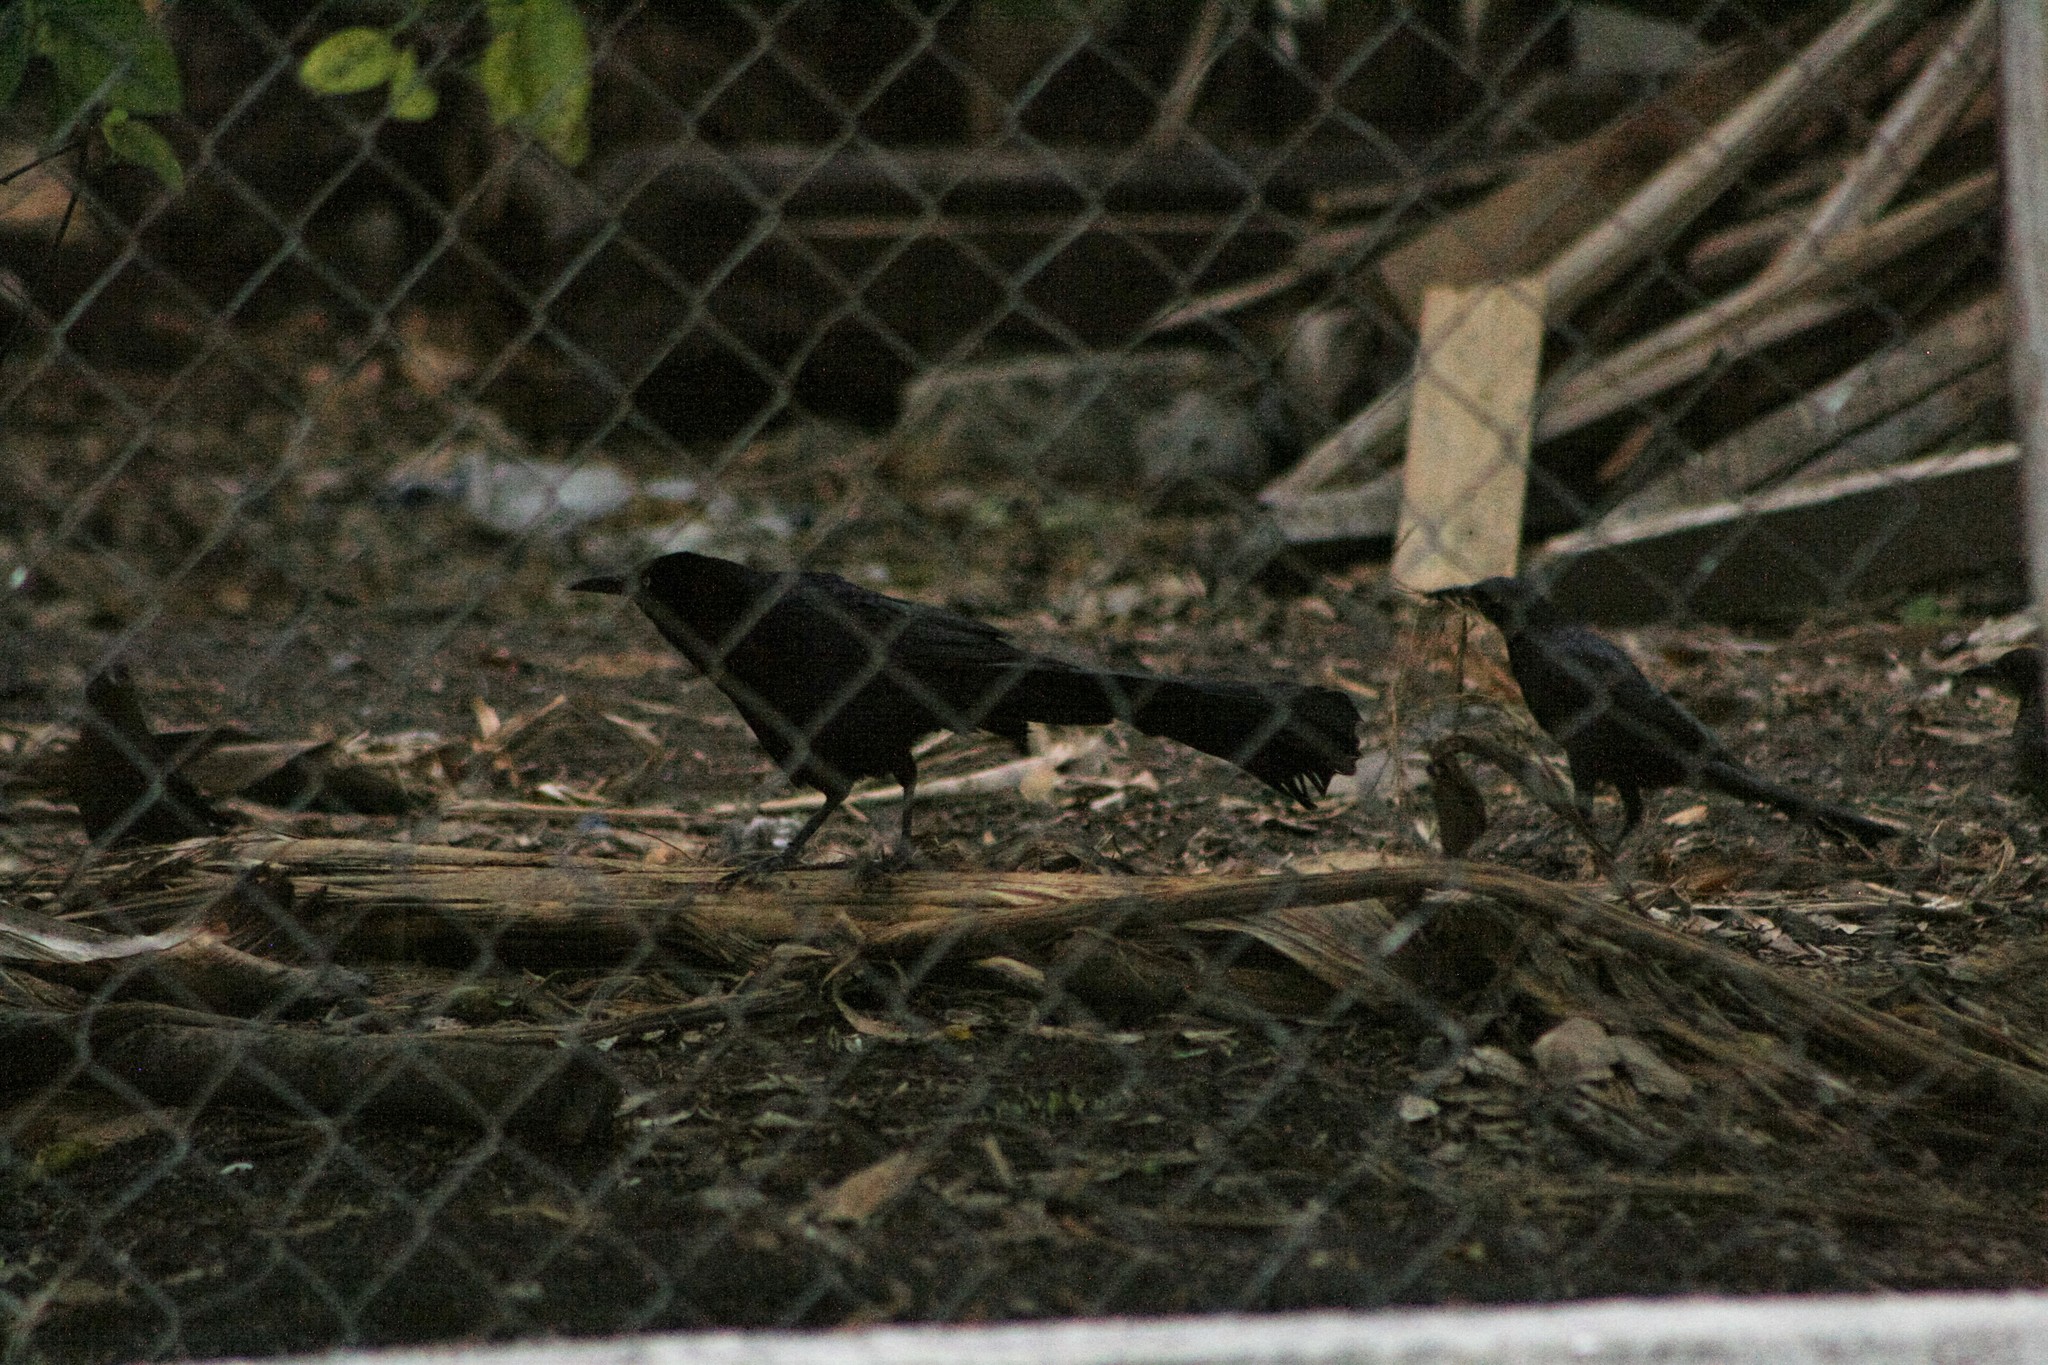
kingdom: Animalia
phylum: Chordata
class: Aves
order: Passeriformes
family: Icteridae
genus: Quiscalus
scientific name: Quiscalus mexicanus
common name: Great-tailed grackle
